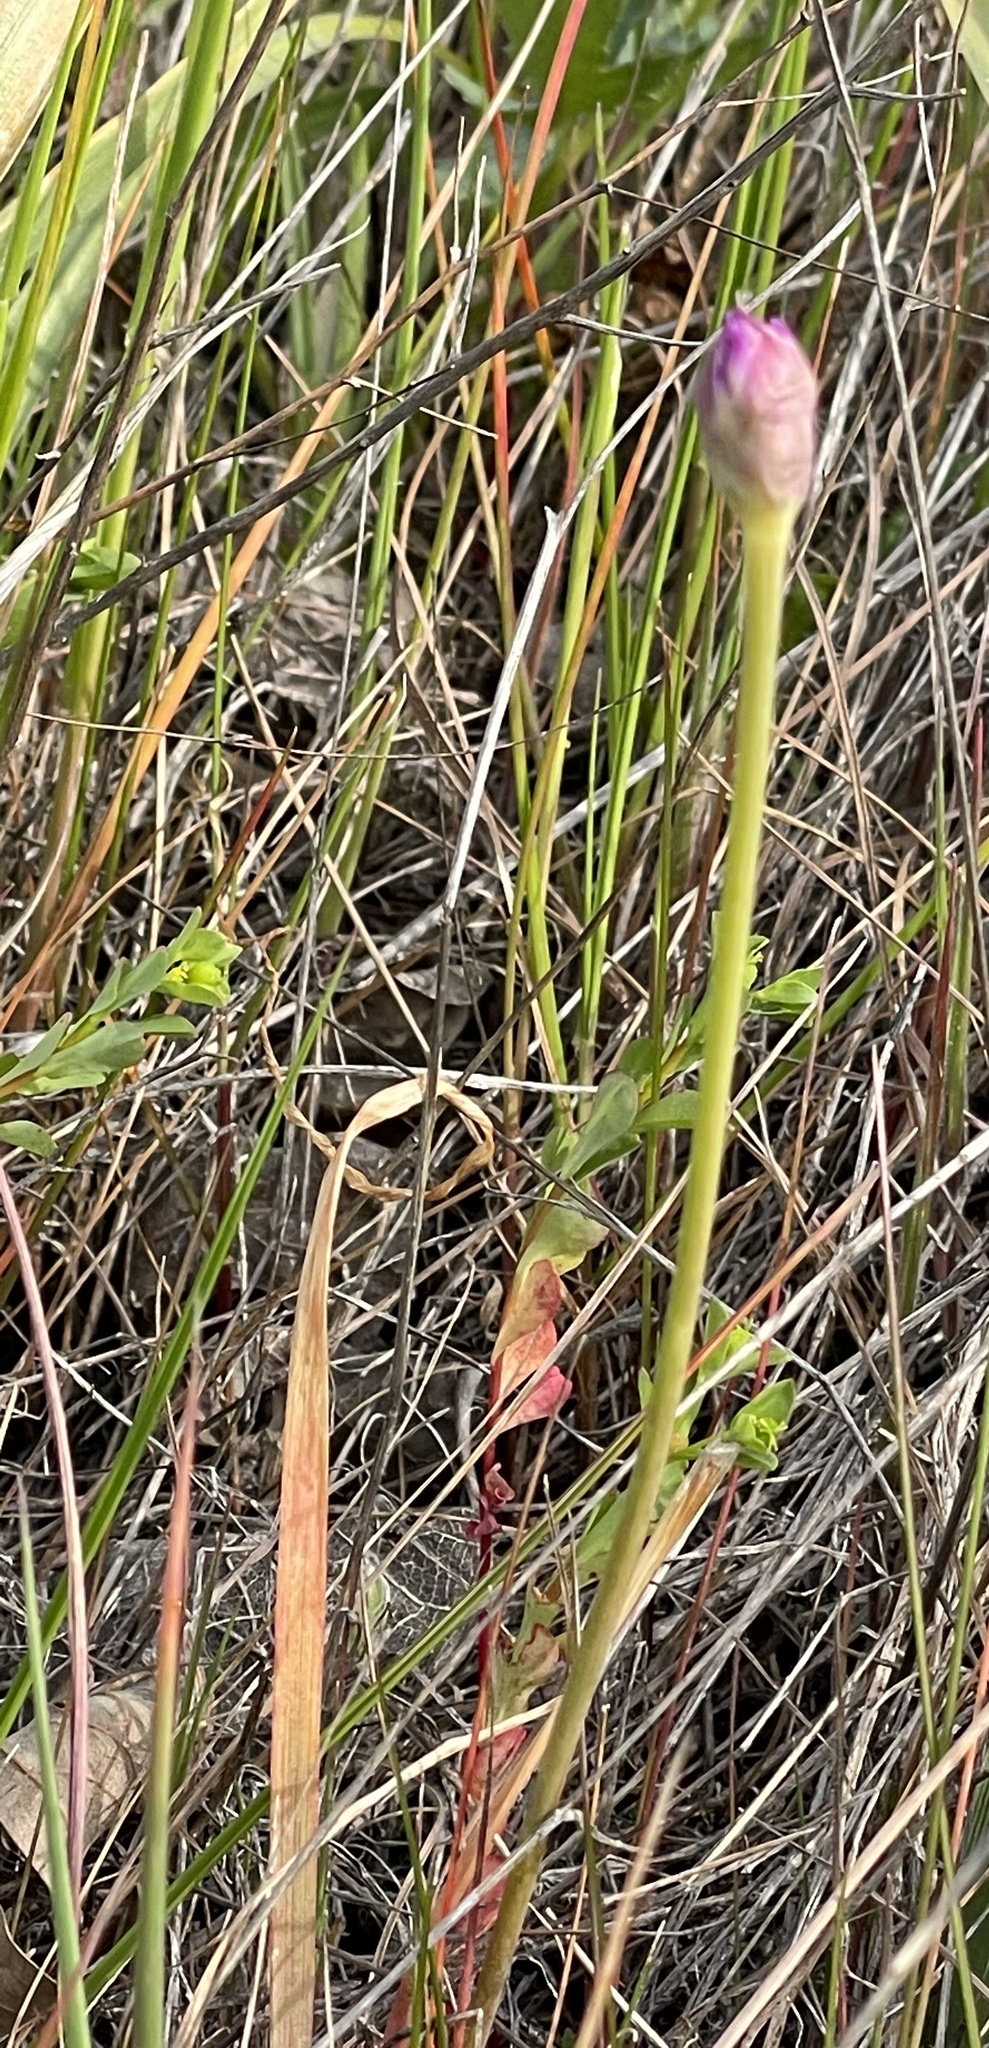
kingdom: Plantae
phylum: Tracheophyta
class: Liliopsida
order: Asparagales
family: Amaryllidaceae
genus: Allium
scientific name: Allium serra
